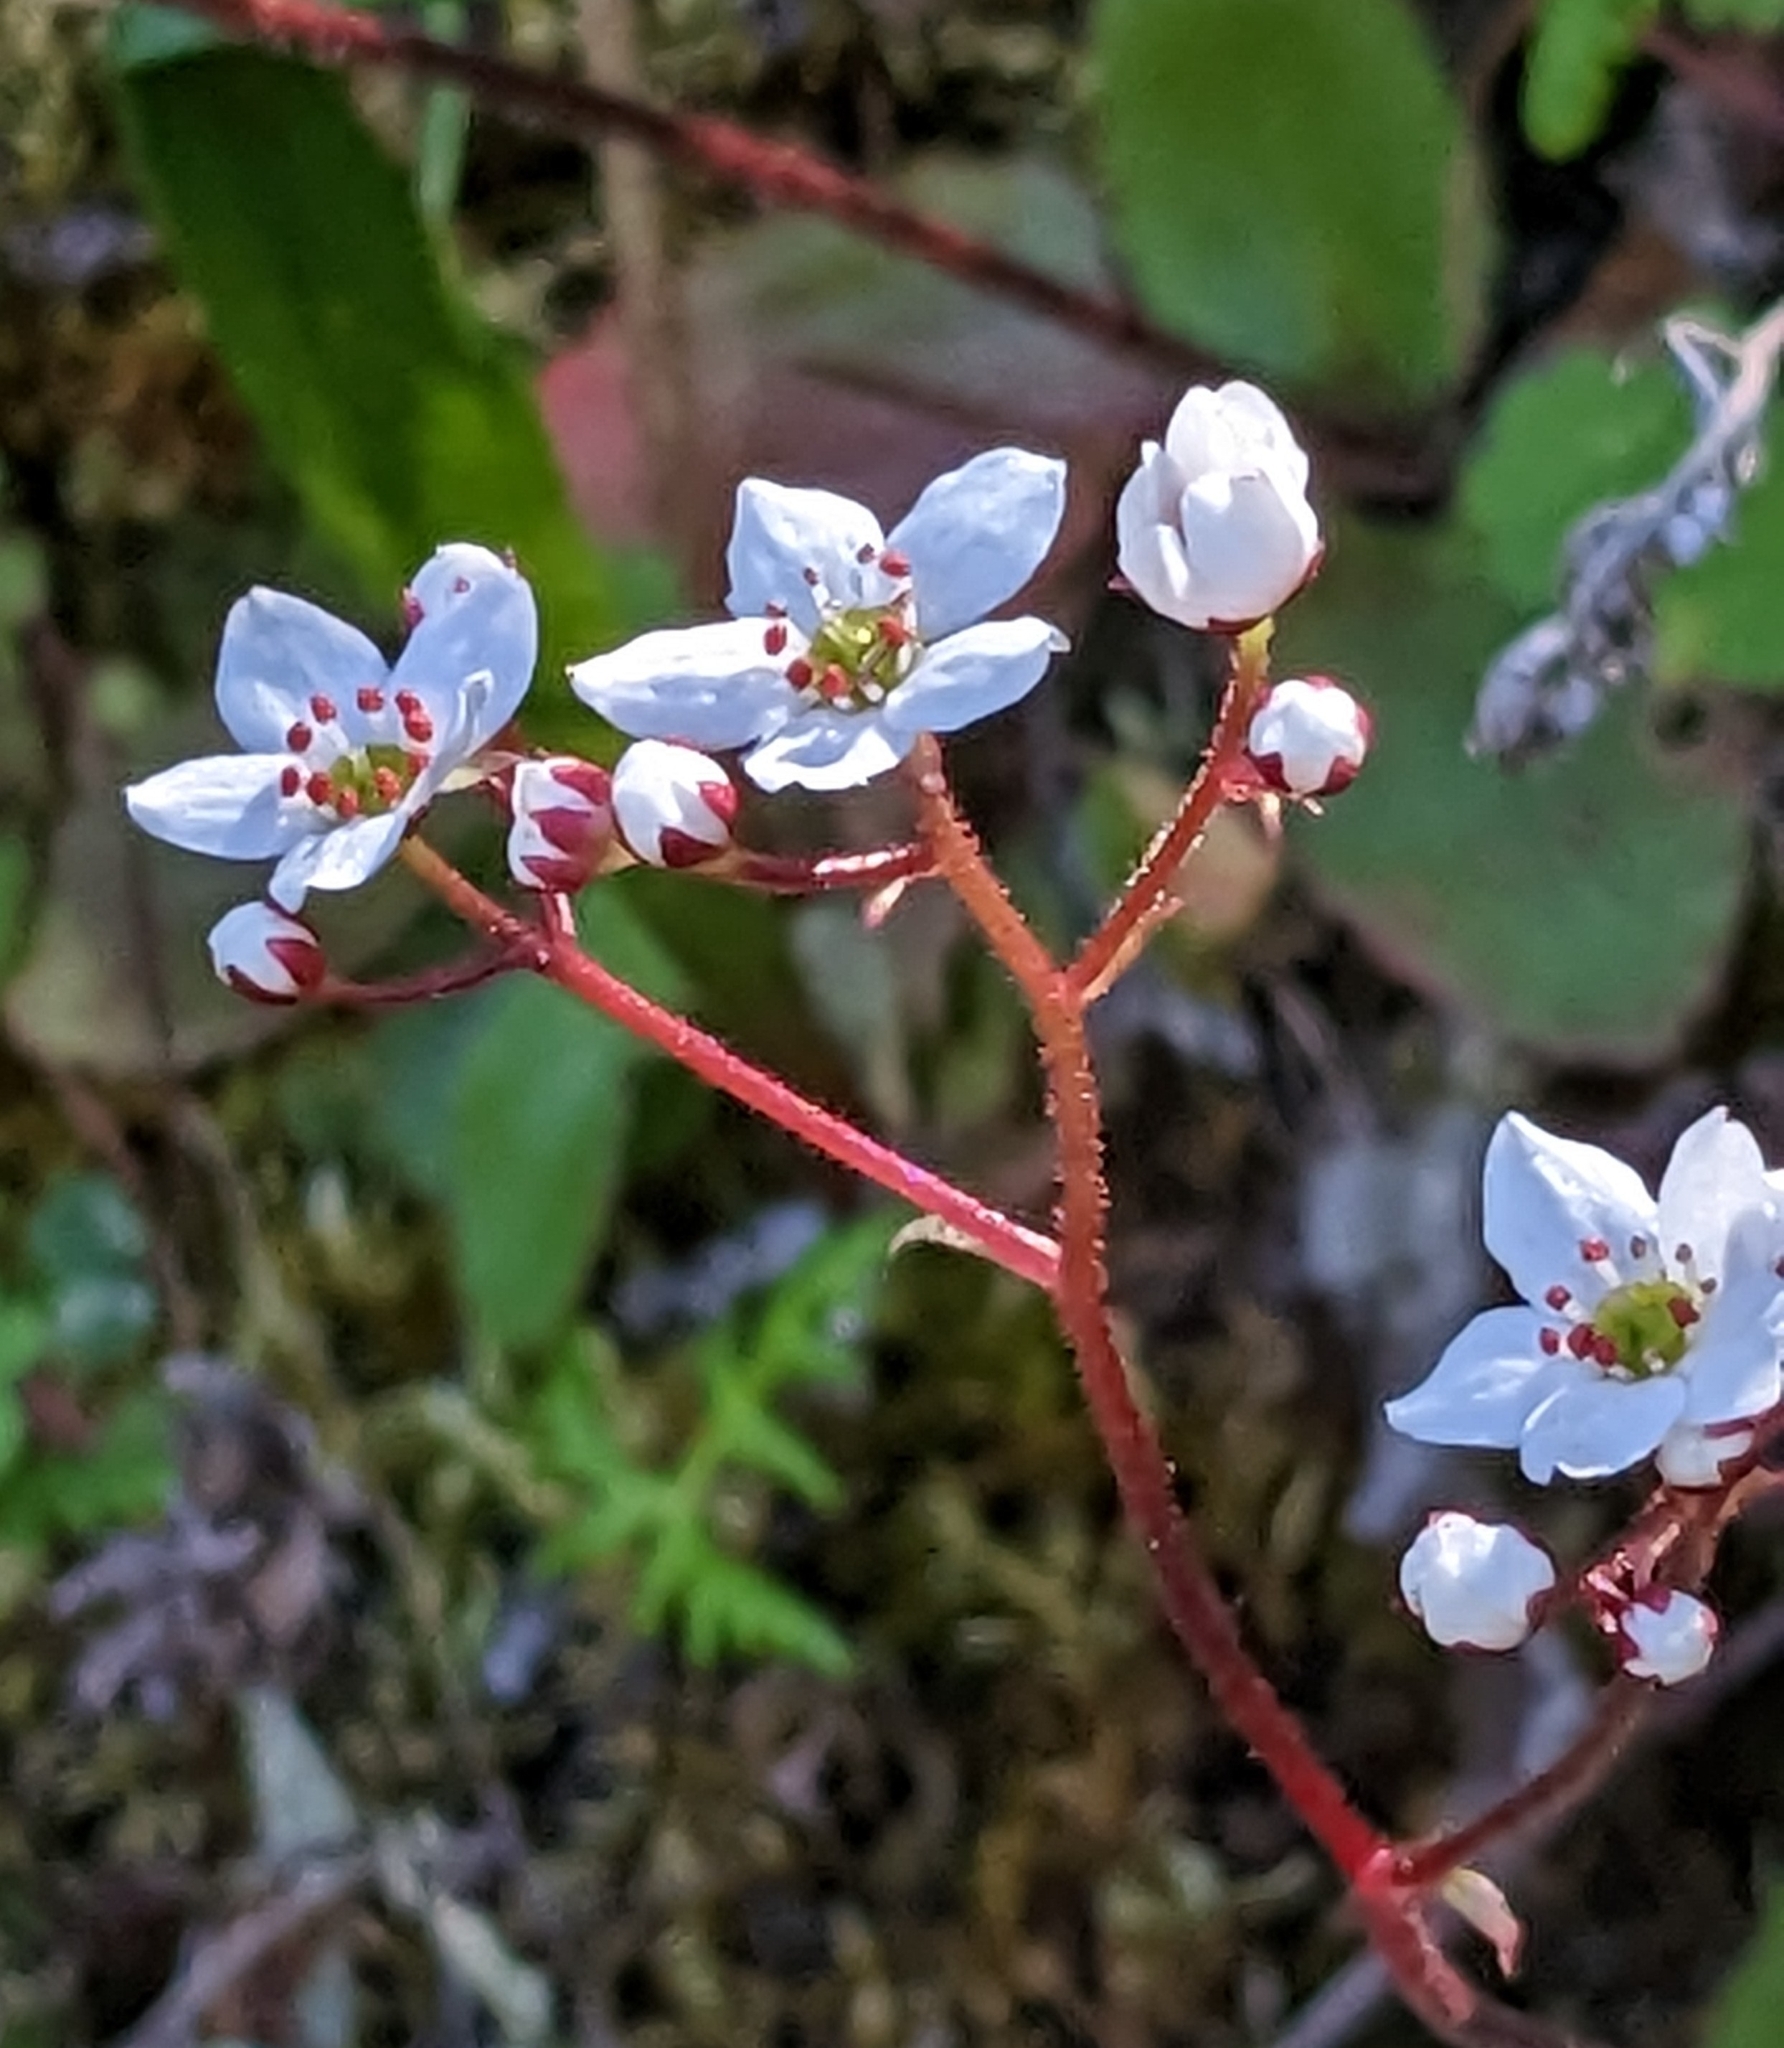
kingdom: Plantae
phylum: Tracheophyta
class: Magnoliopsida
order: Saxifragales
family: Saxifragaceae
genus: Micranthes
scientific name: Micranthes californica
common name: California saxifrage
